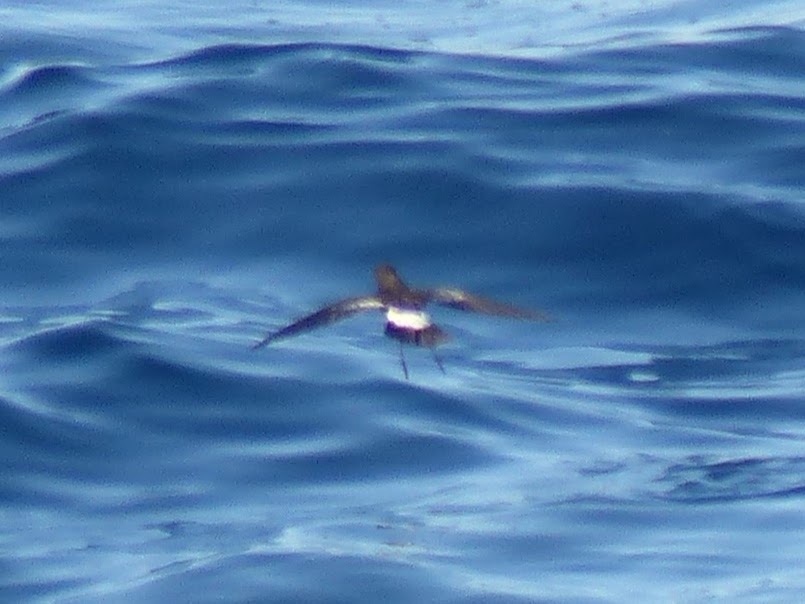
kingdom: Animalia
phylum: Chordata
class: Aves
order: Procellariiformes
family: Hydrobatidae
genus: Oceanites
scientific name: Oceanites oceanicus
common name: Wilson's storm petrel
